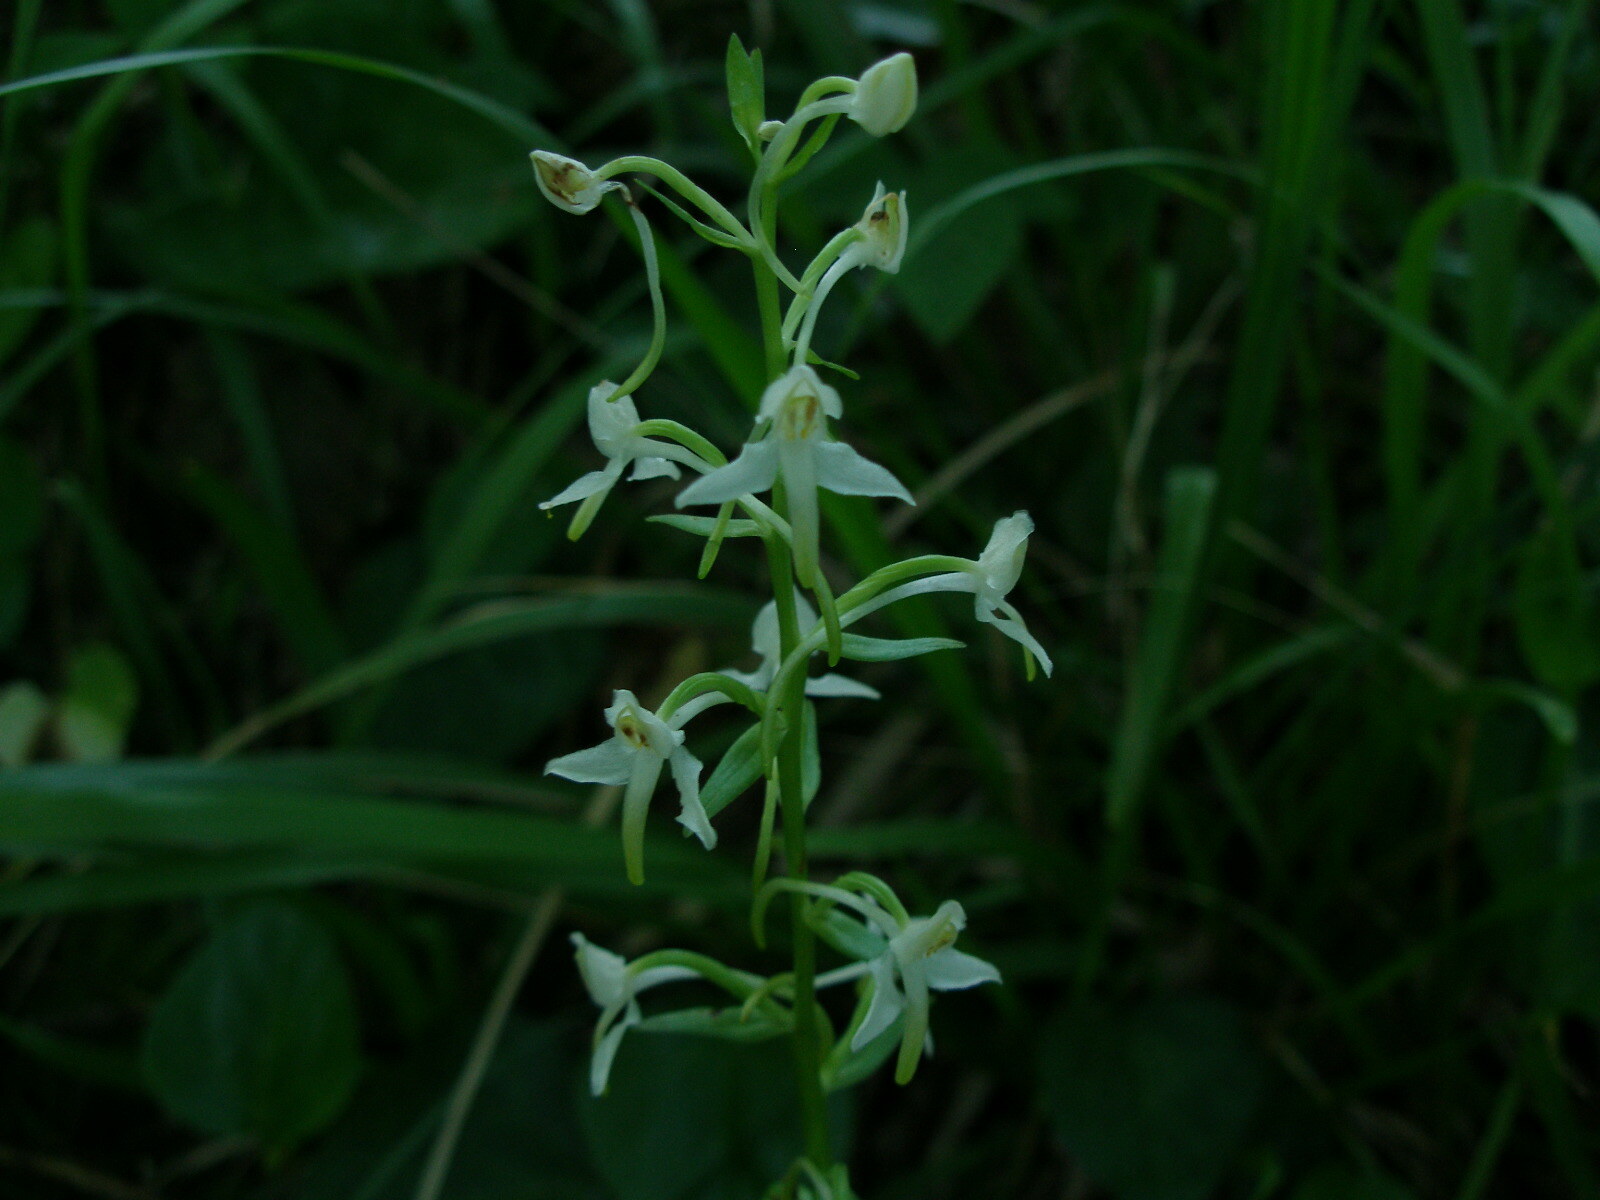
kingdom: Plantae
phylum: Tracheophyta
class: Liliopsida
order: Asparagales
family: Orchidaceae
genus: Platanthera
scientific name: Platanthera hybrida
